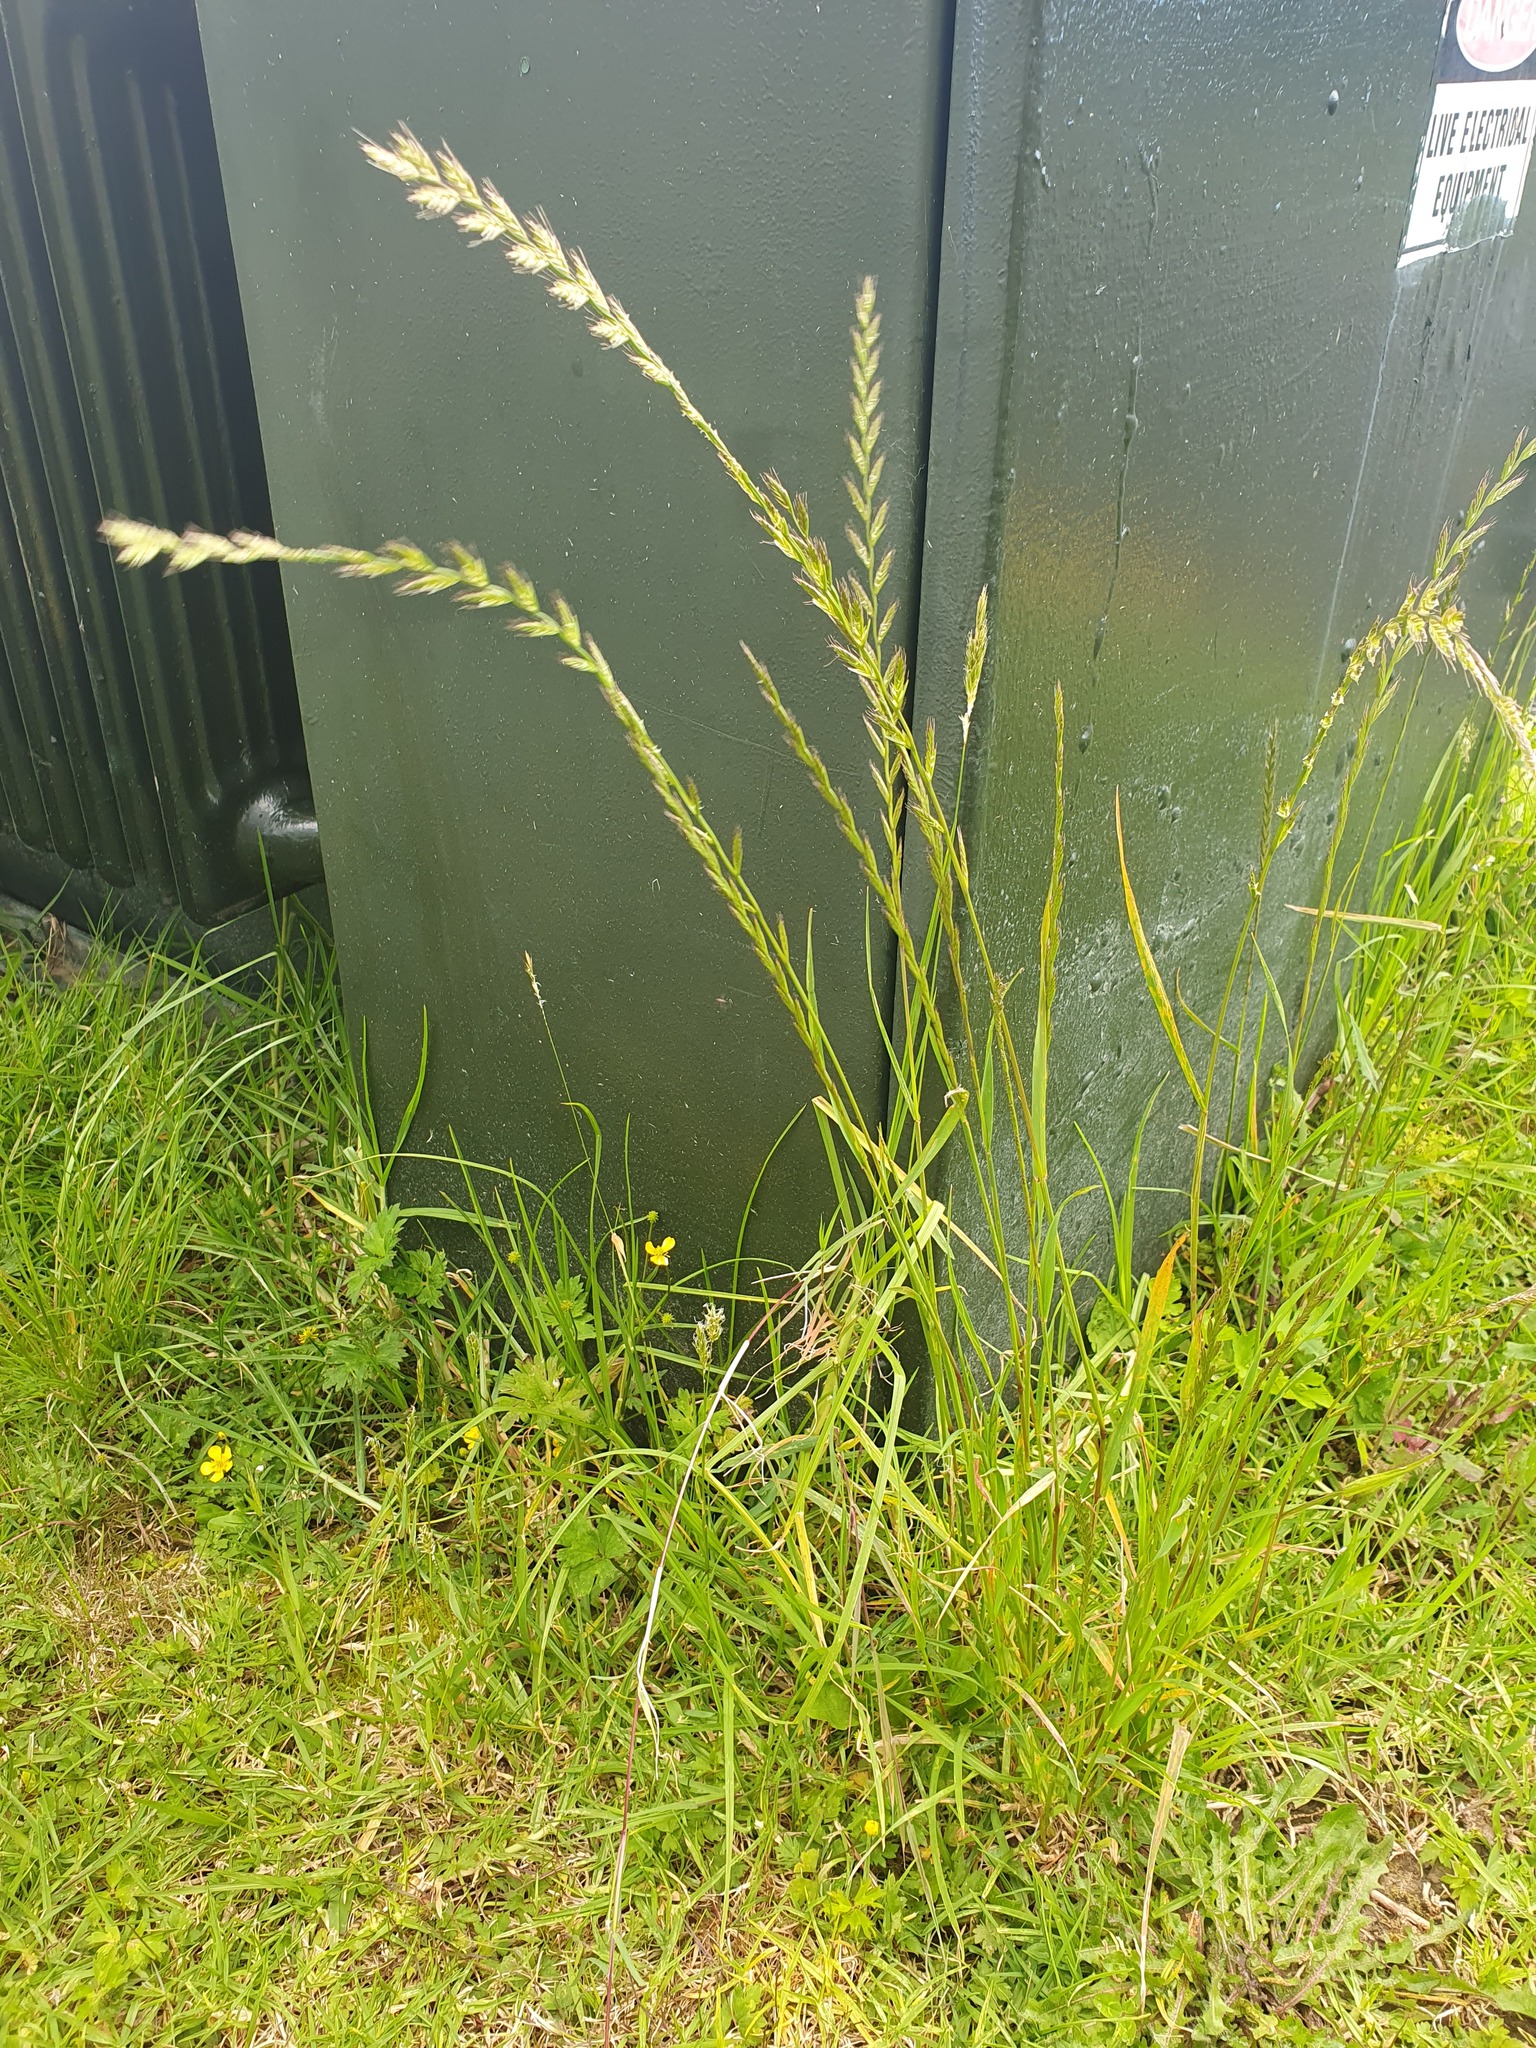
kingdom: Plantae
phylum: Tracheophyta
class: Liliopsida
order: Poales
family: Poaceae
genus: Lolium
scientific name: Lolium multiflorum
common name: Annual ryegrass
